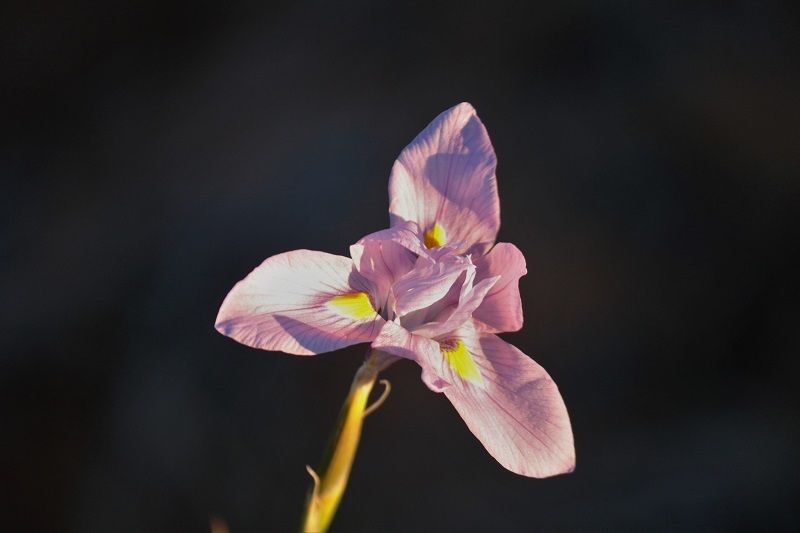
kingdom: Plantae
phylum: Tracheophyta
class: Liliopsida
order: Asparagales
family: Iridaceae
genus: Moraea
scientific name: Moraea polystachya
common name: Blue-tulip
